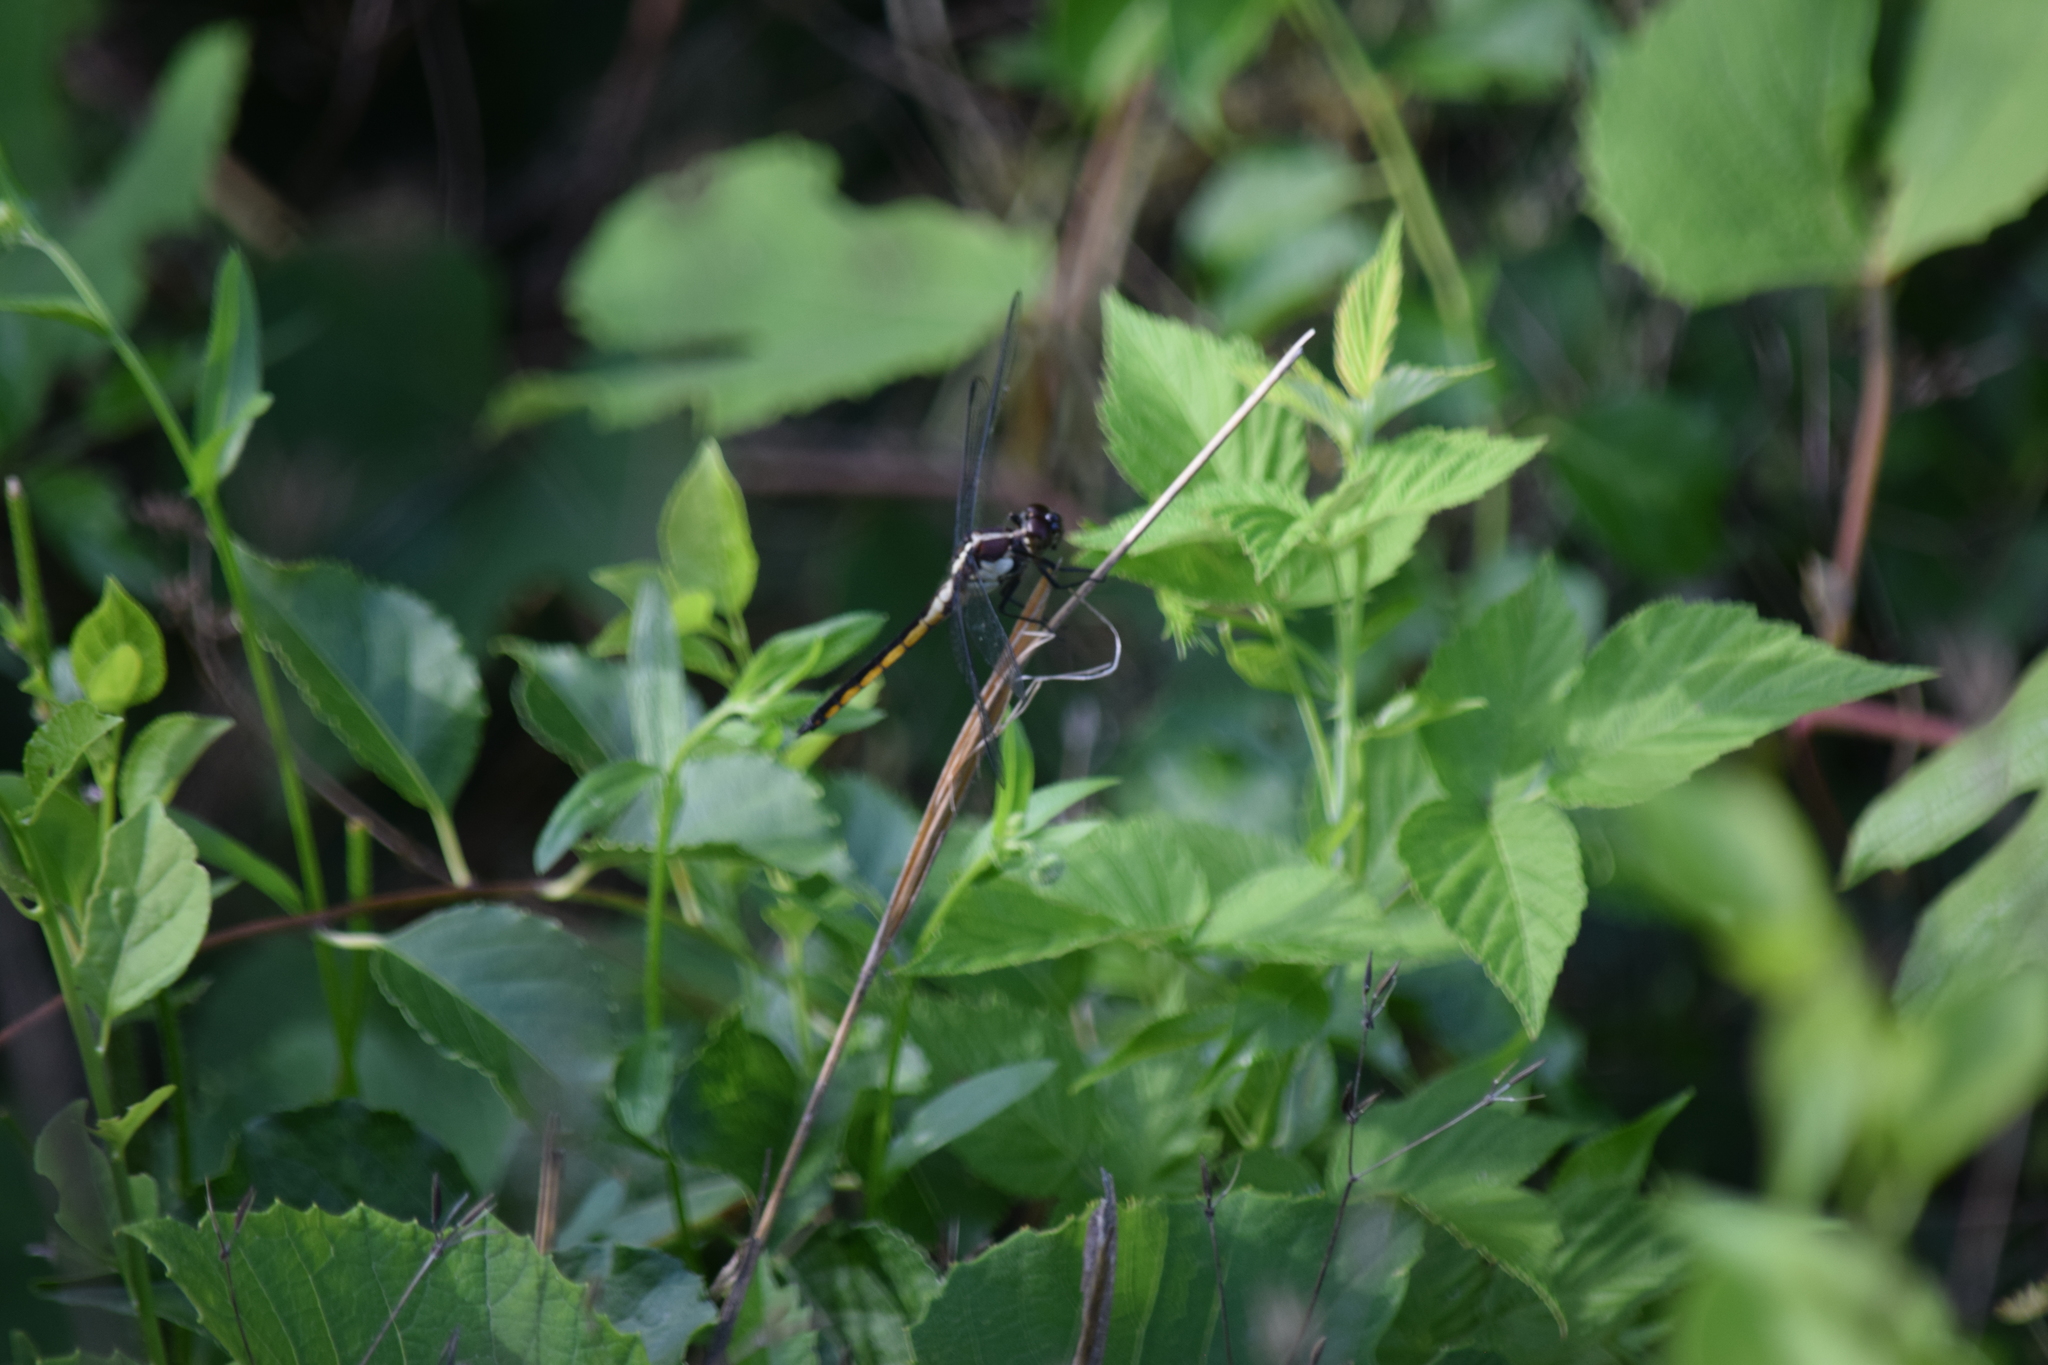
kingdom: Animalia
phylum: Arthropoda
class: Insecta
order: Odonata
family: Libellulidae
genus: Libellula
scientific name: Libellula incesta
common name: Slaty skimmer
